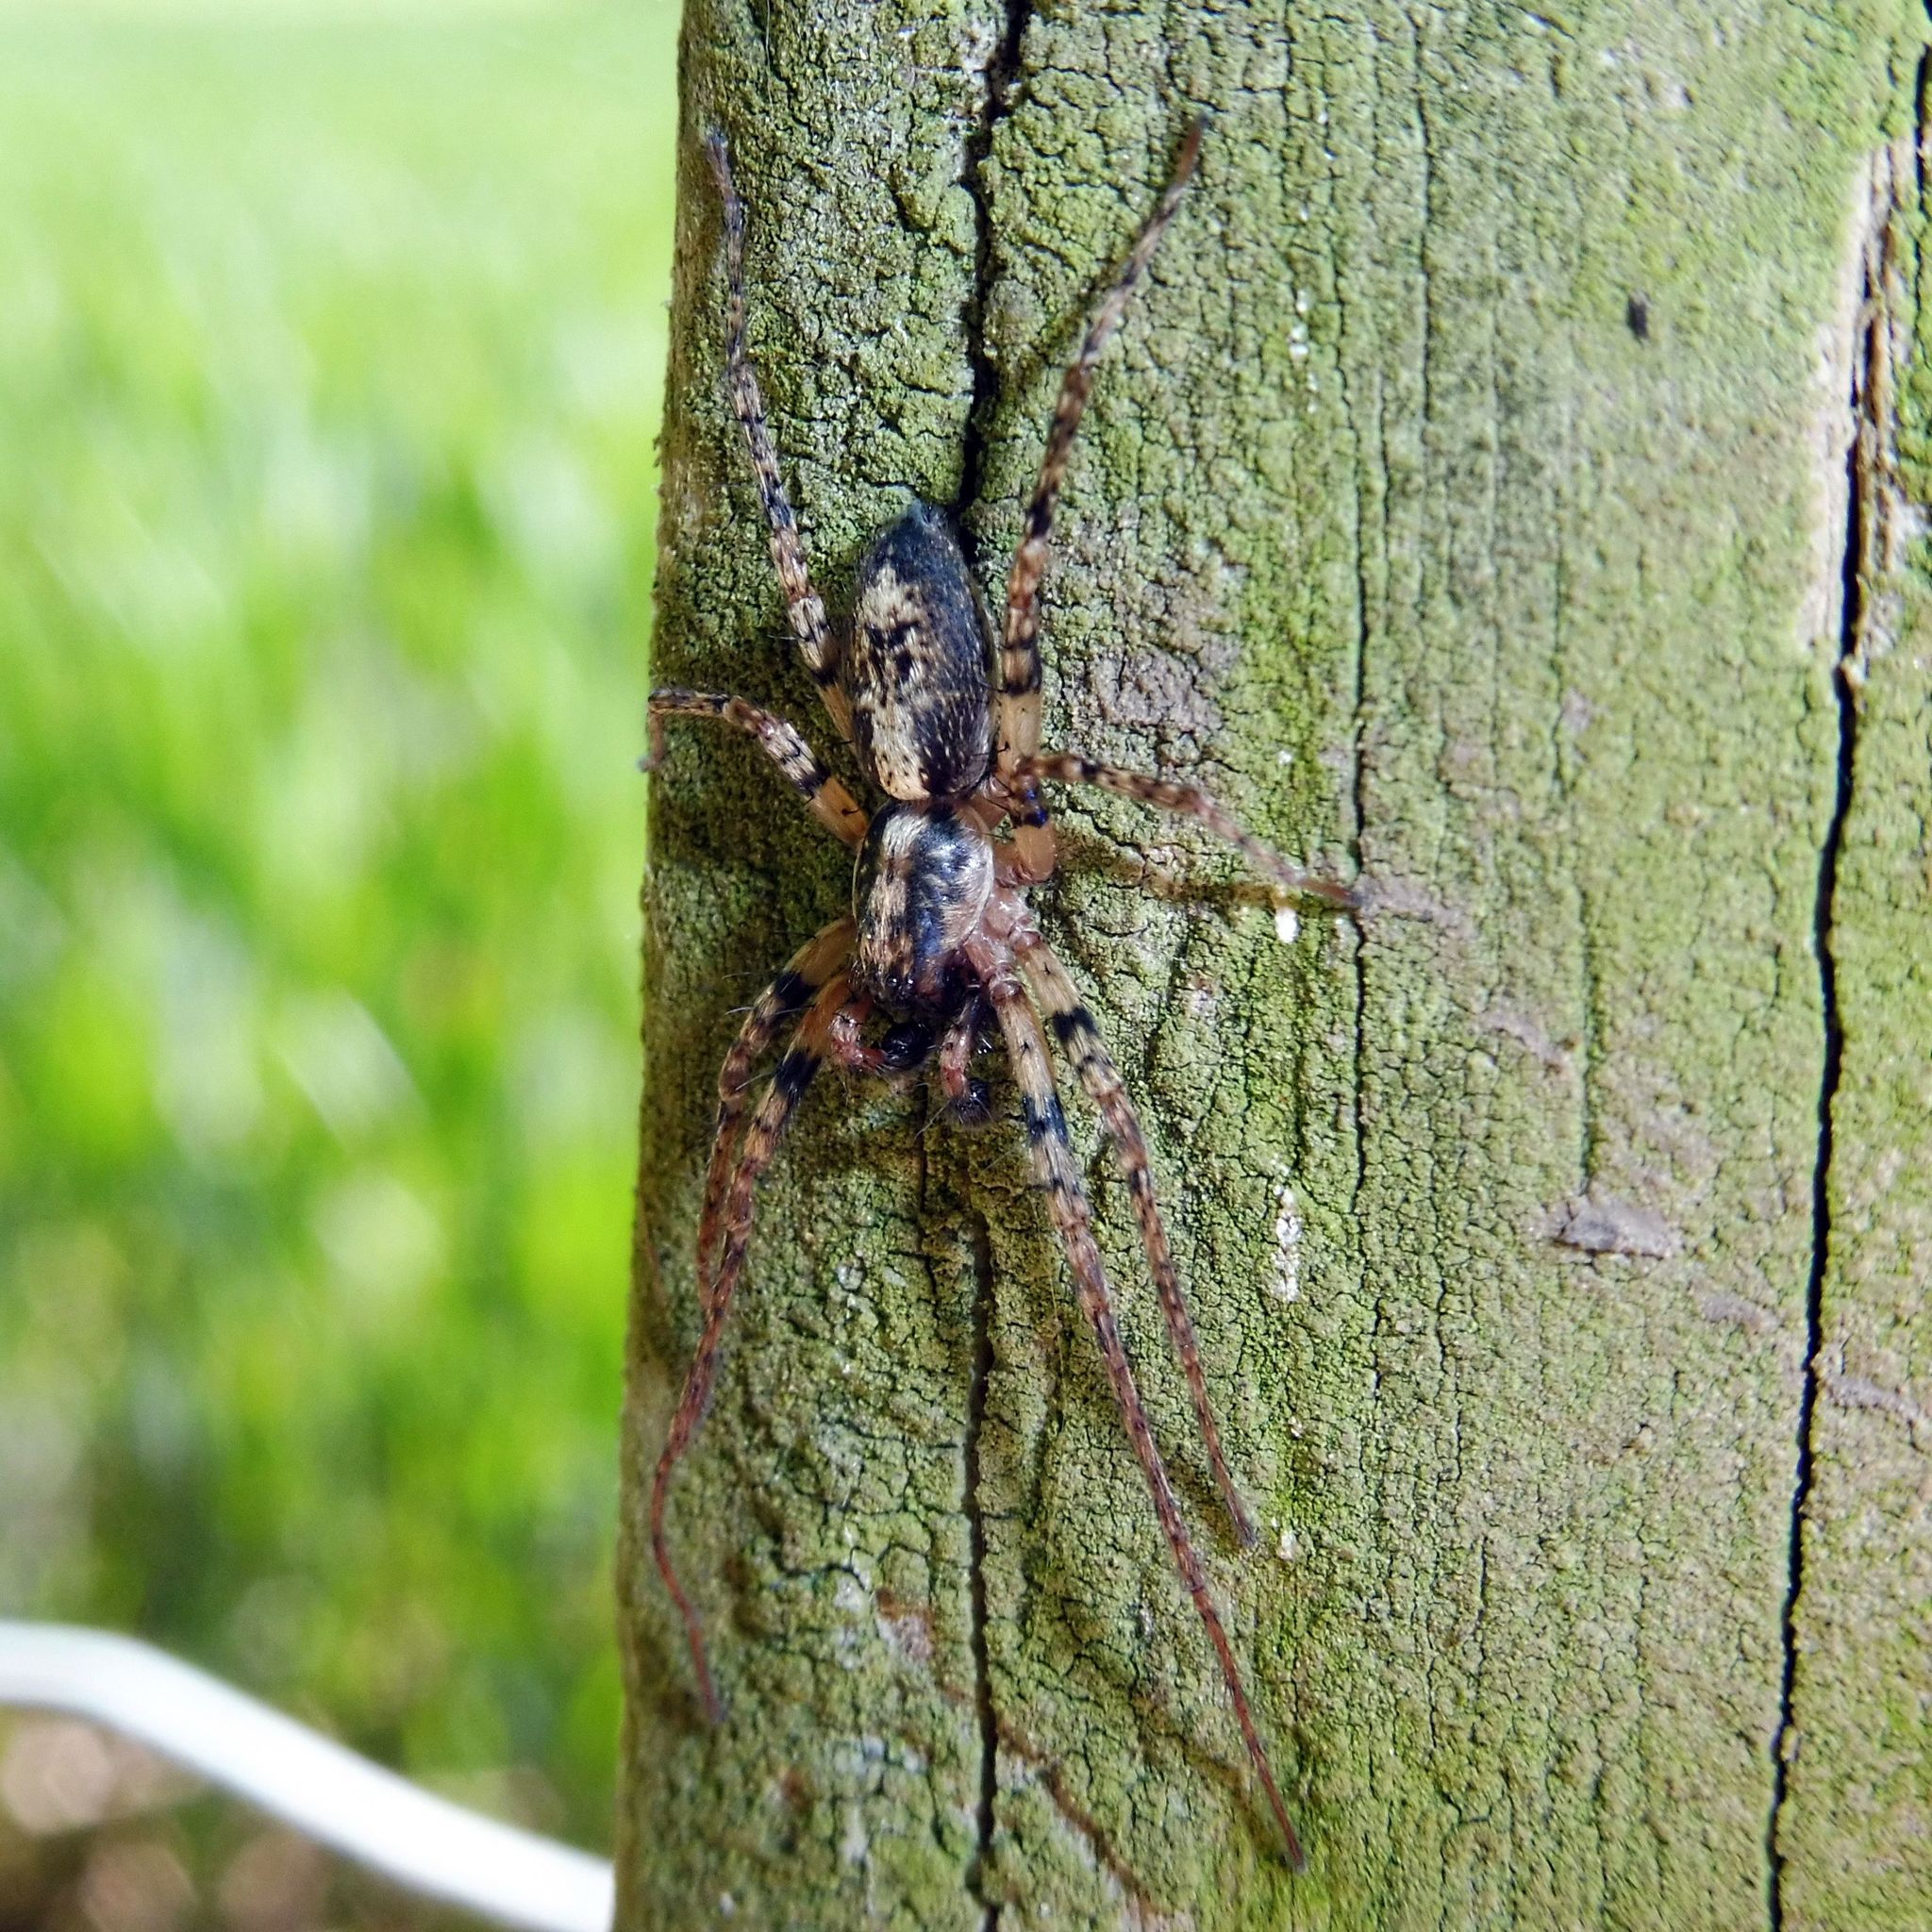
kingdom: Animalia
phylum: Arthropoda
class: Arachnida
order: Araneae
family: Anyphaenidae
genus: Anyphaena
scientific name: Anyphaena accentuata
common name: Buzzing spider
